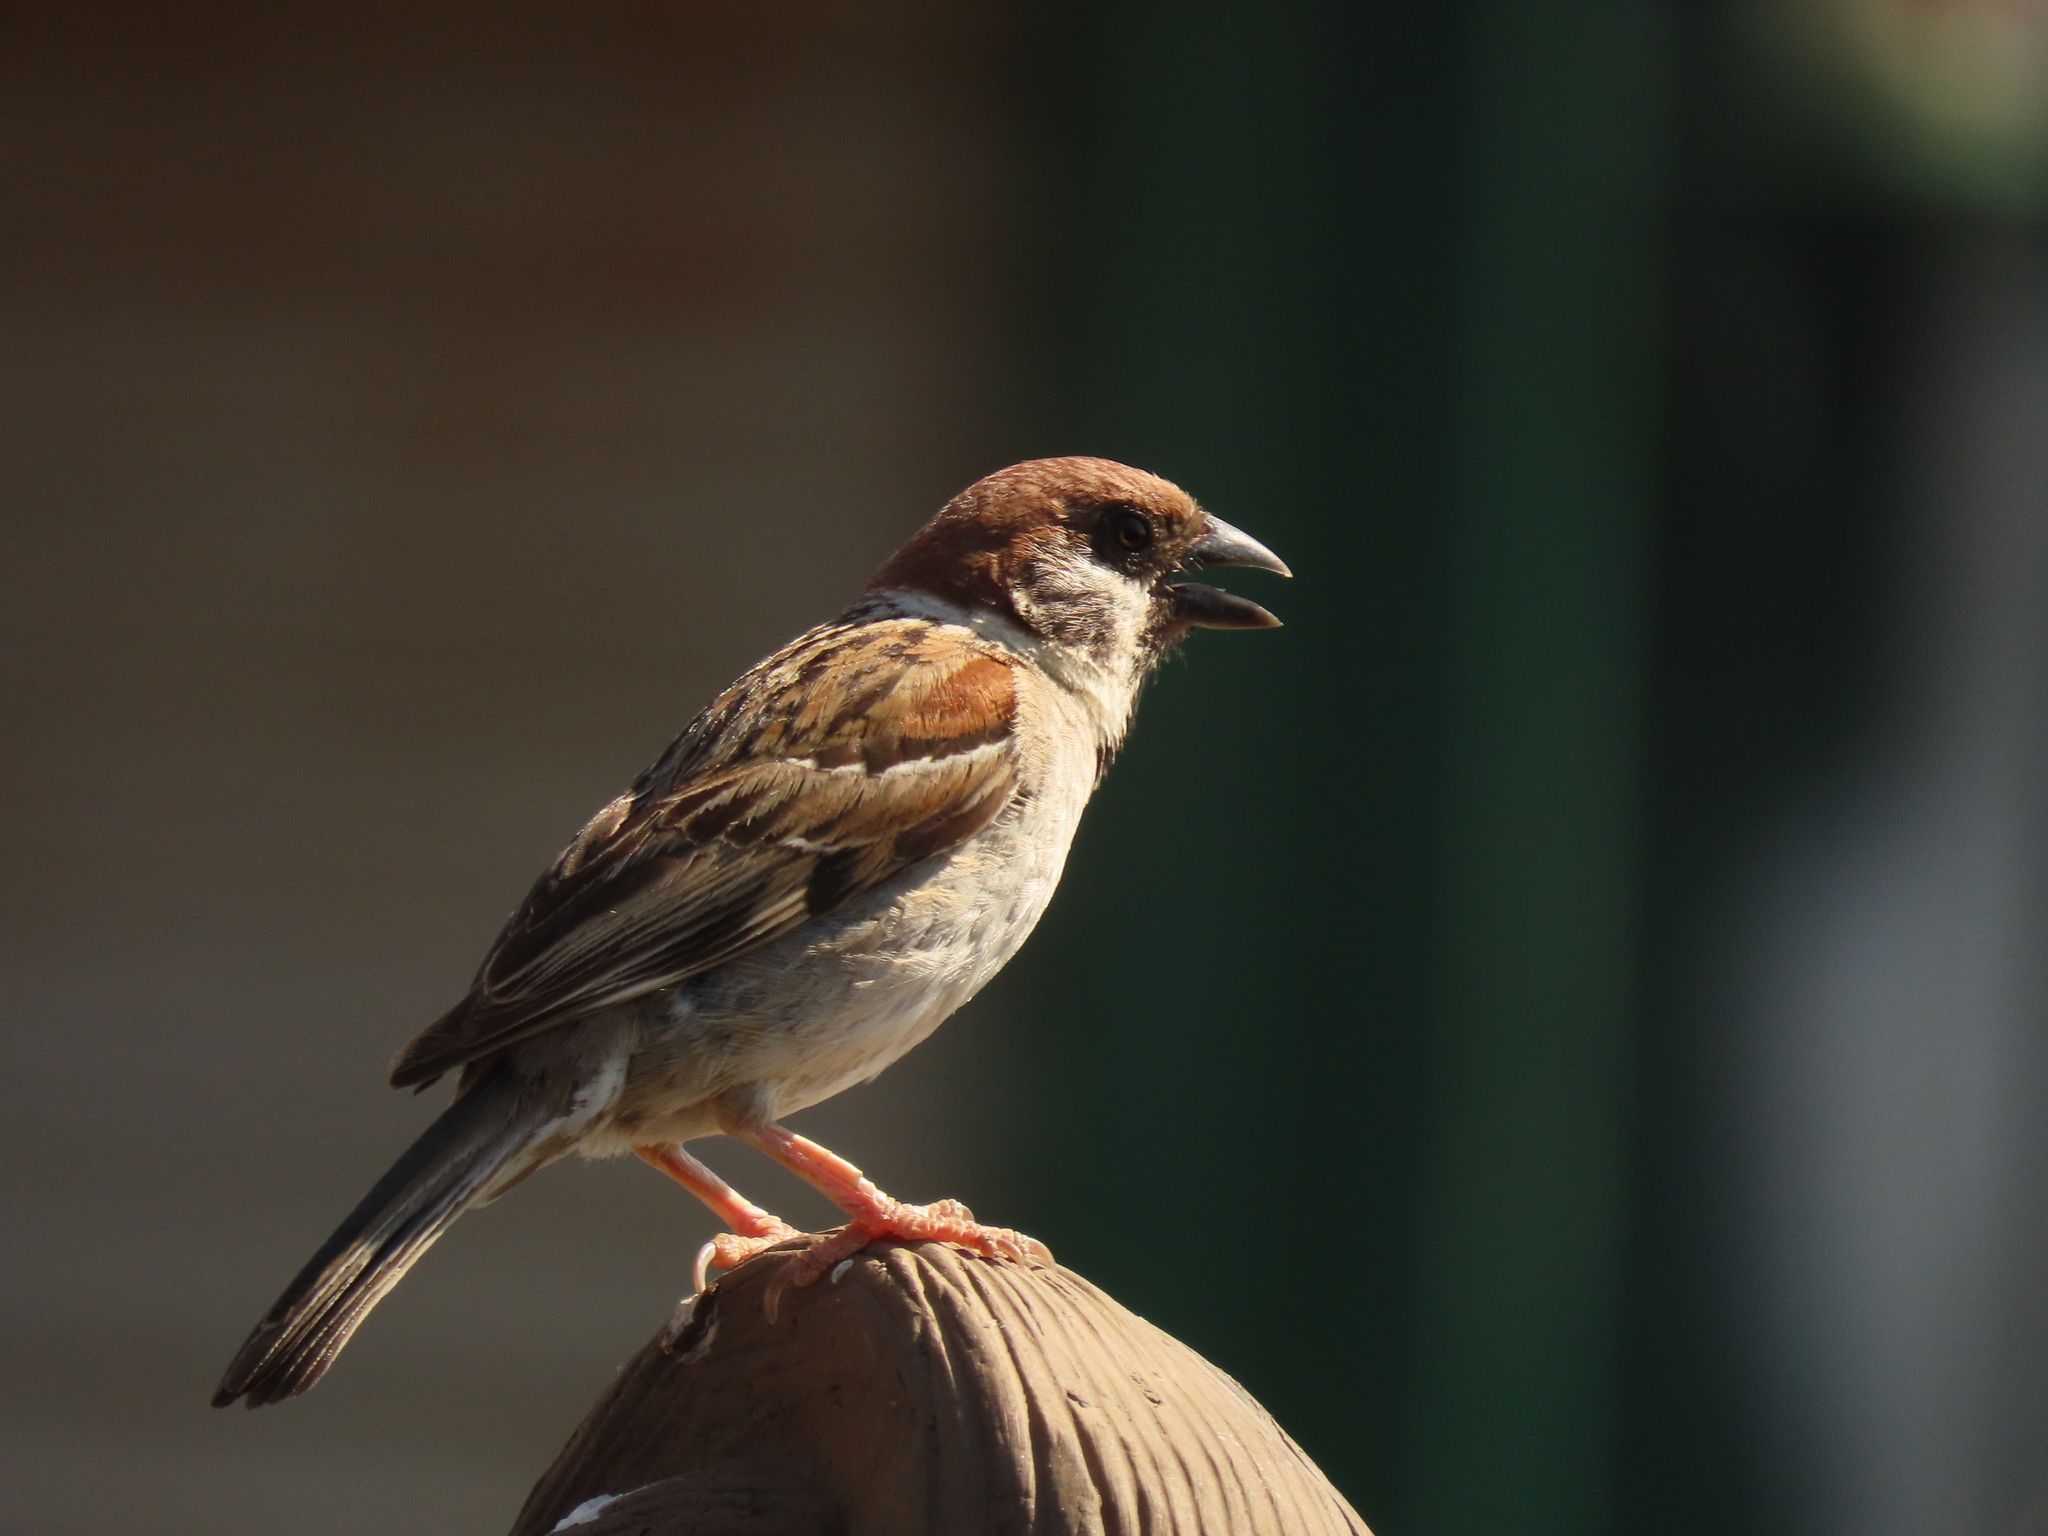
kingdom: Animalia
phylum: Chordata
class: Aves
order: Passeriformes
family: Passeridae
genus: Passer
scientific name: Passer montanus
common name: Eurasian tree sparrow
